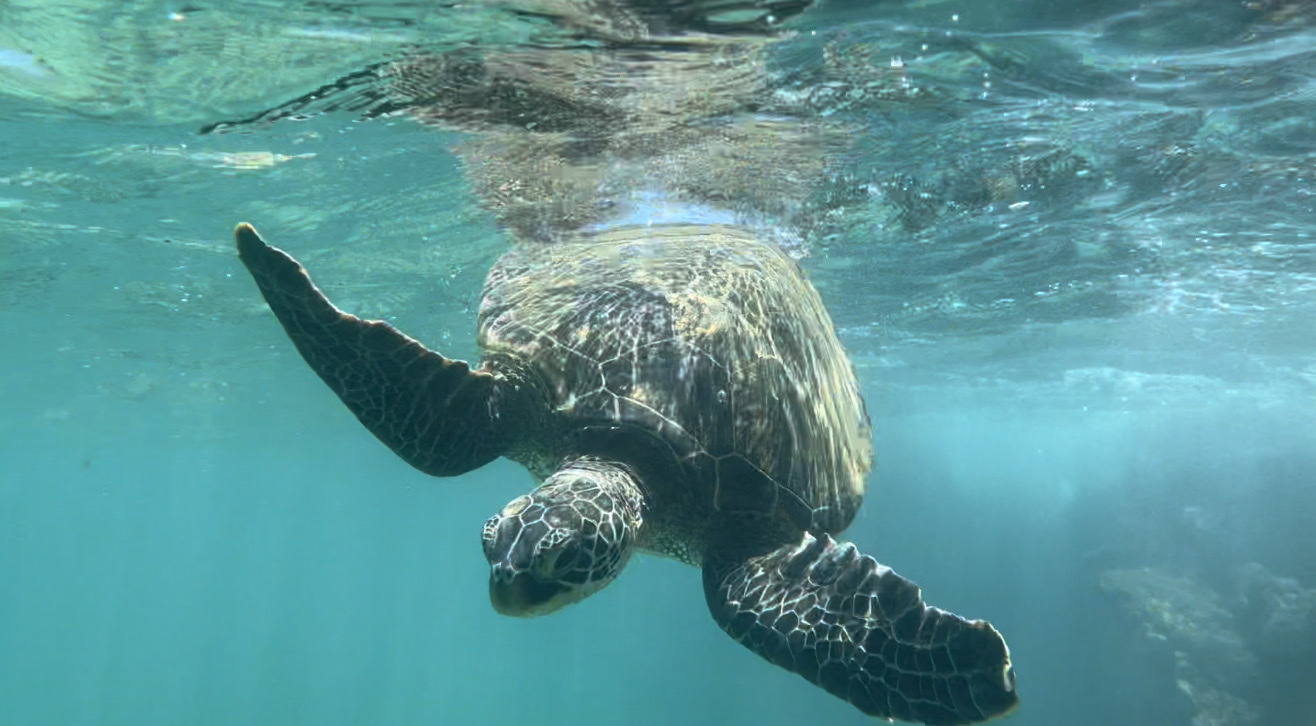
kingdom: Animalia
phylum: Chordata
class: Testudines
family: Cheloniidae
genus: Chelonia
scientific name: Chelonia mydas
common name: Green turtle
